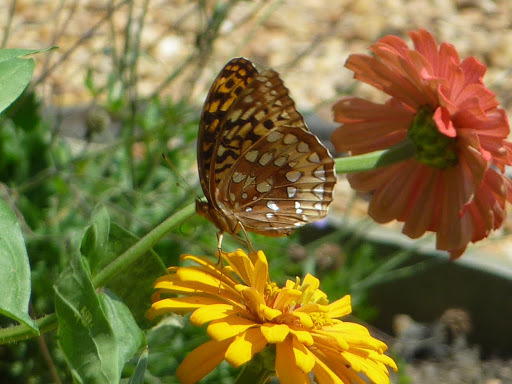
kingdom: Animalia
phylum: Arthropoda
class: Insecta
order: Lepidoptera
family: Nymphalidae
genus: Speyeria
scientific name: Speyeria cybele
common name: Great spangled fritillary
